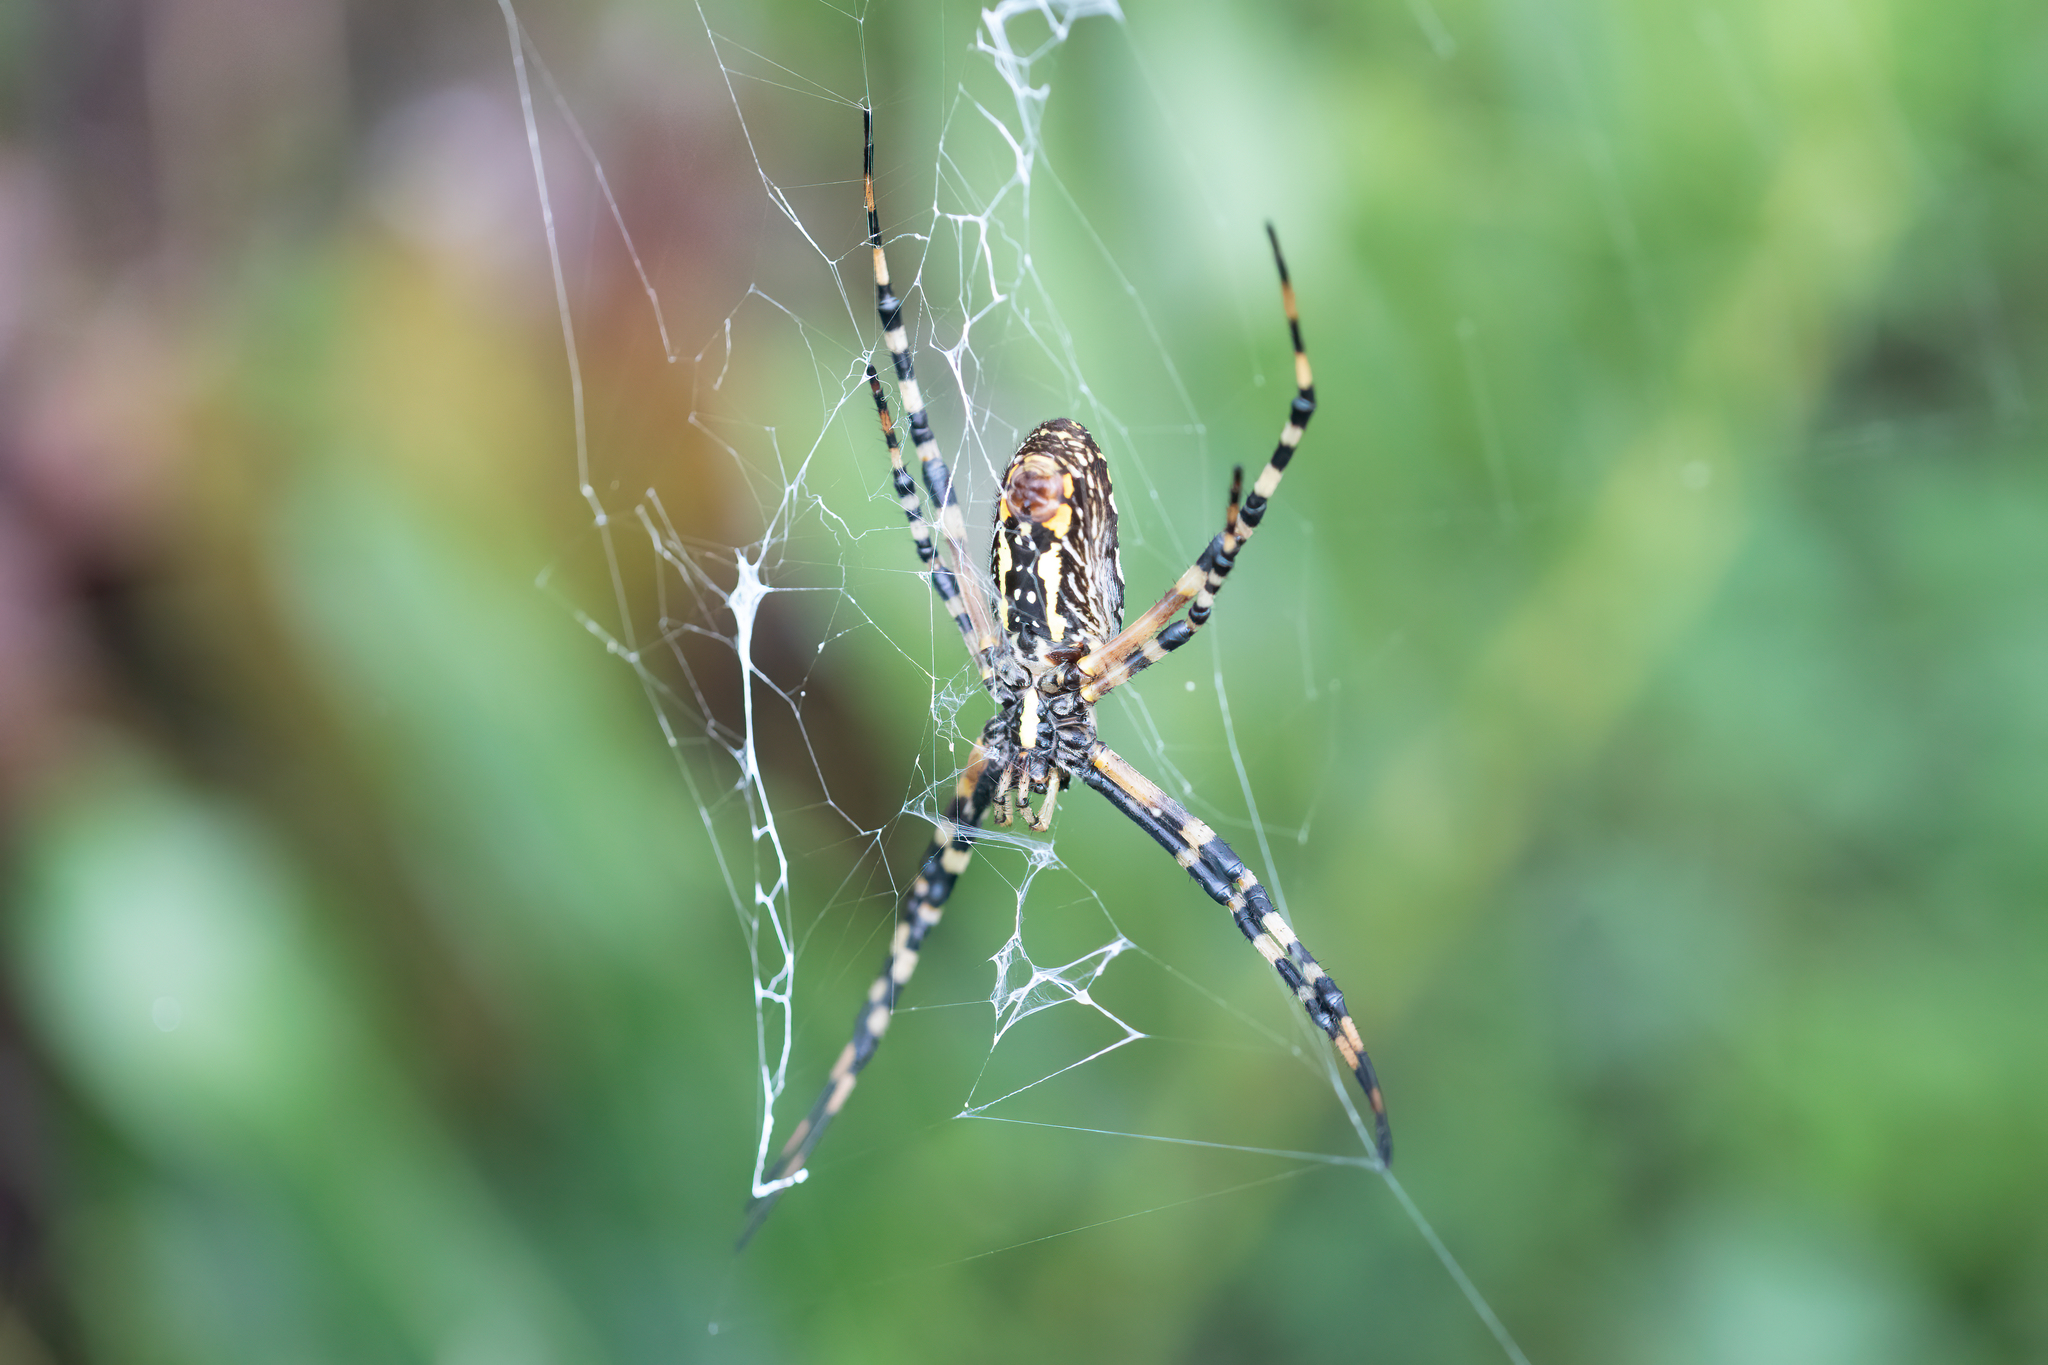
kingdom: Animalia
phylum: Arthropoda
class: Arachnida
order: Araneae
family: Araneidae
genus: Argiope
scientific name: Argiope aurantia
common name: Orb weavers
